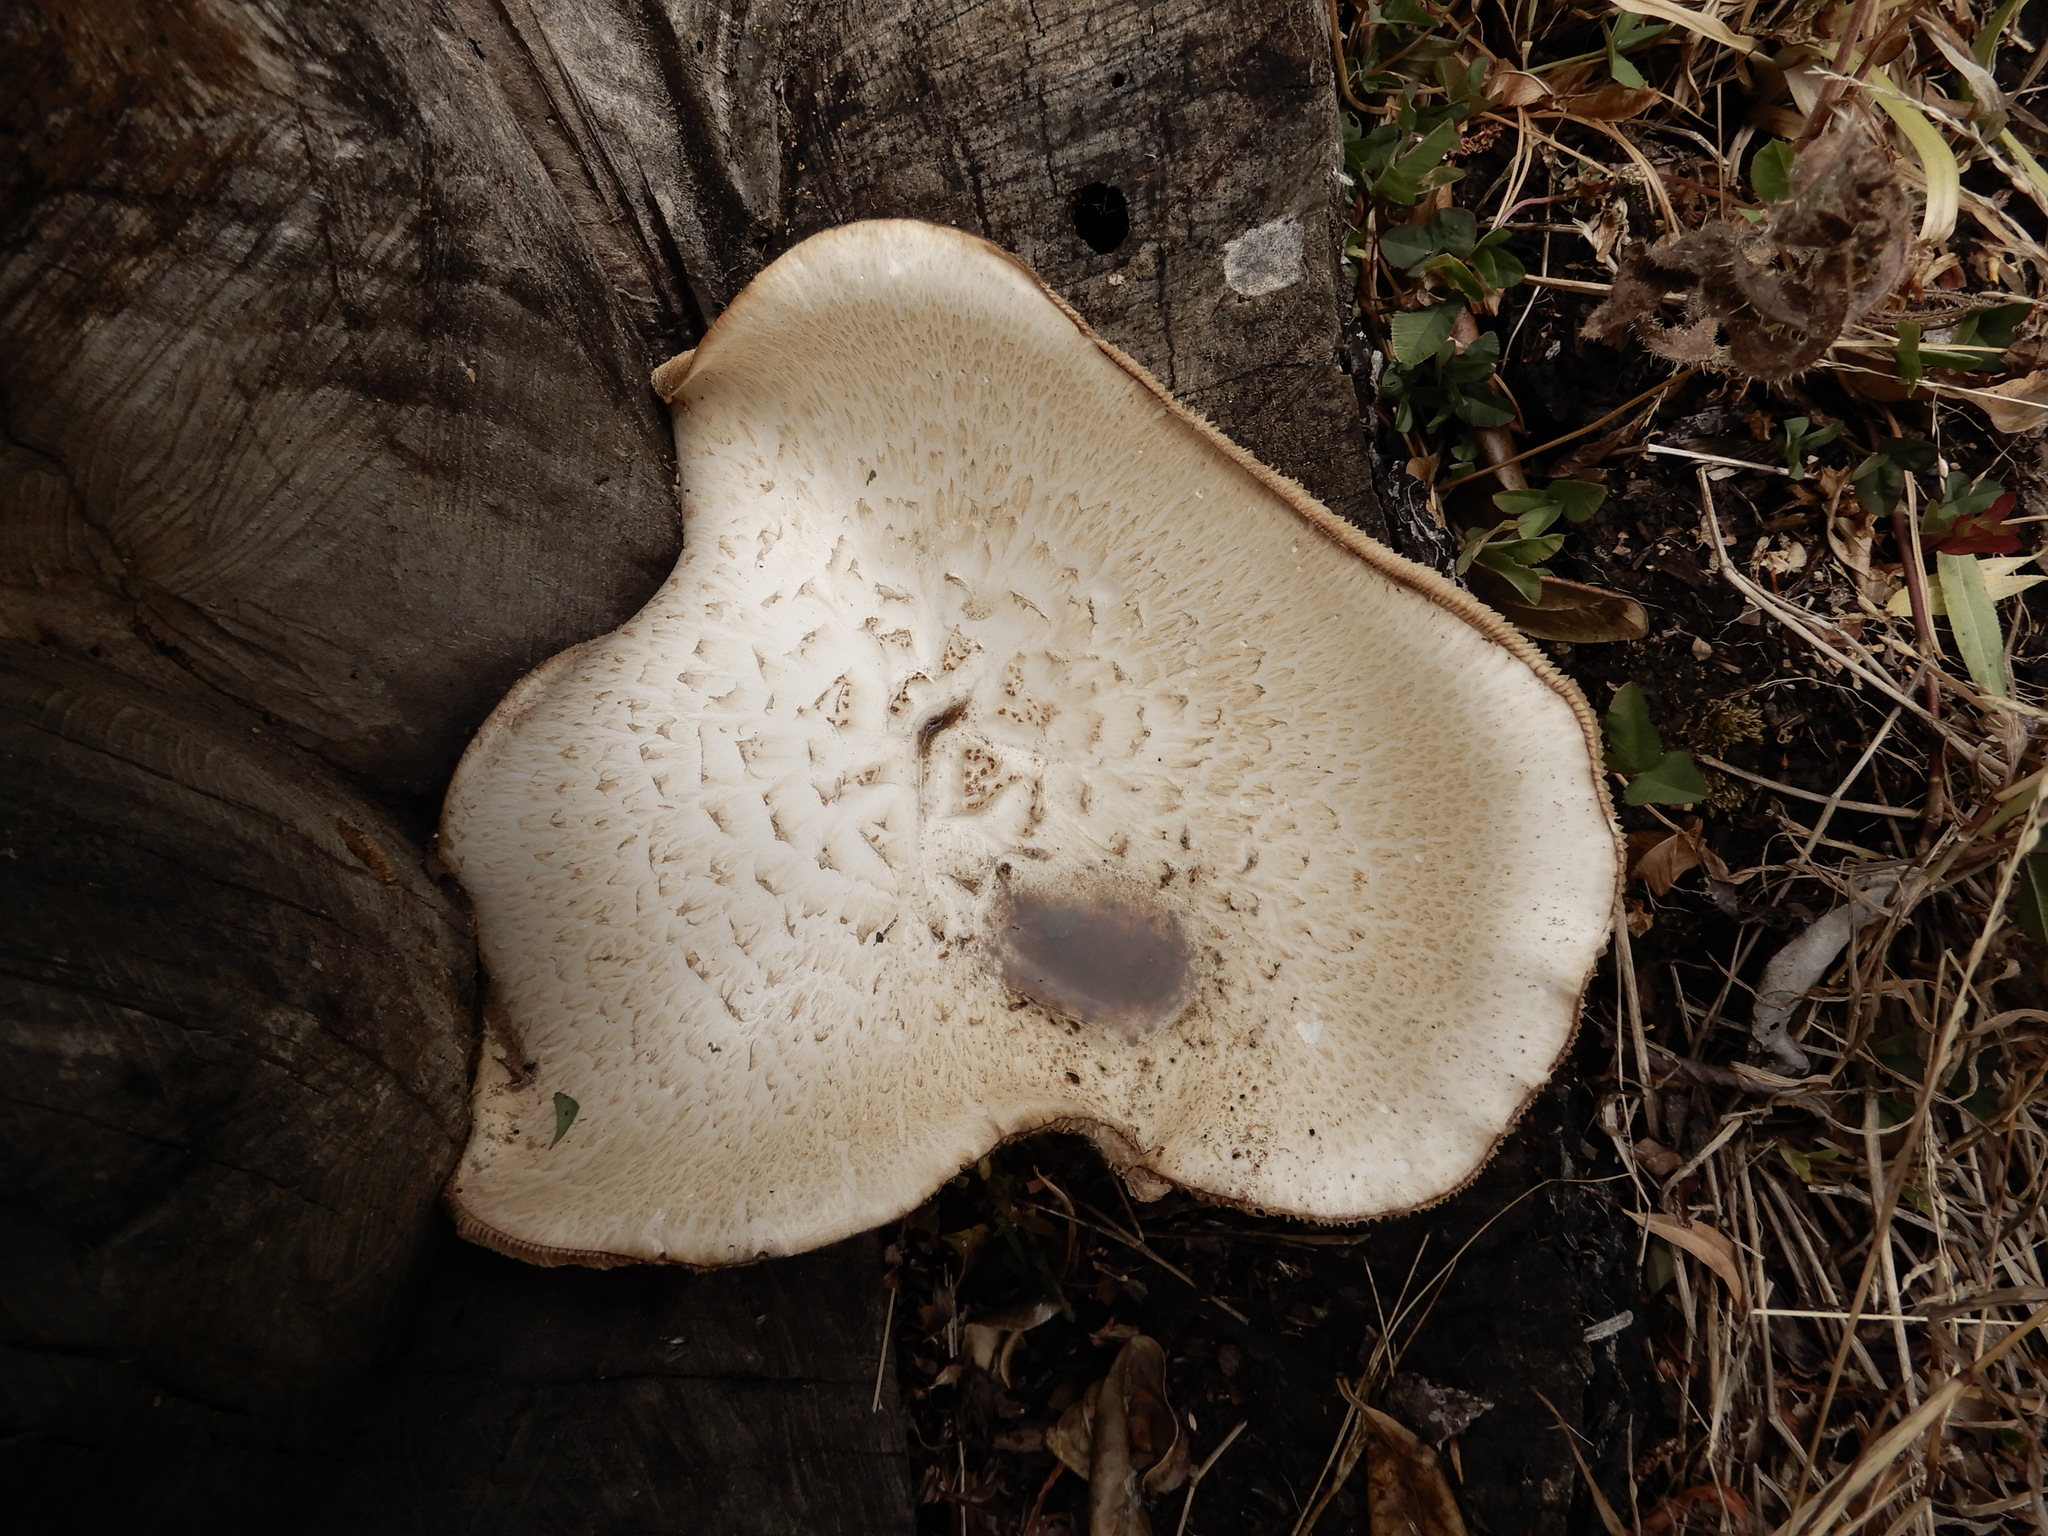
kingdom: Fungi
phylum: Basidiomycota
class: Agaricomycetes
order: Gloeophyllales
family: Gloeophyllaceae
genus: Neolentinus
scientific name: Neolentinus lepideus
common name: Scaly sawgill
